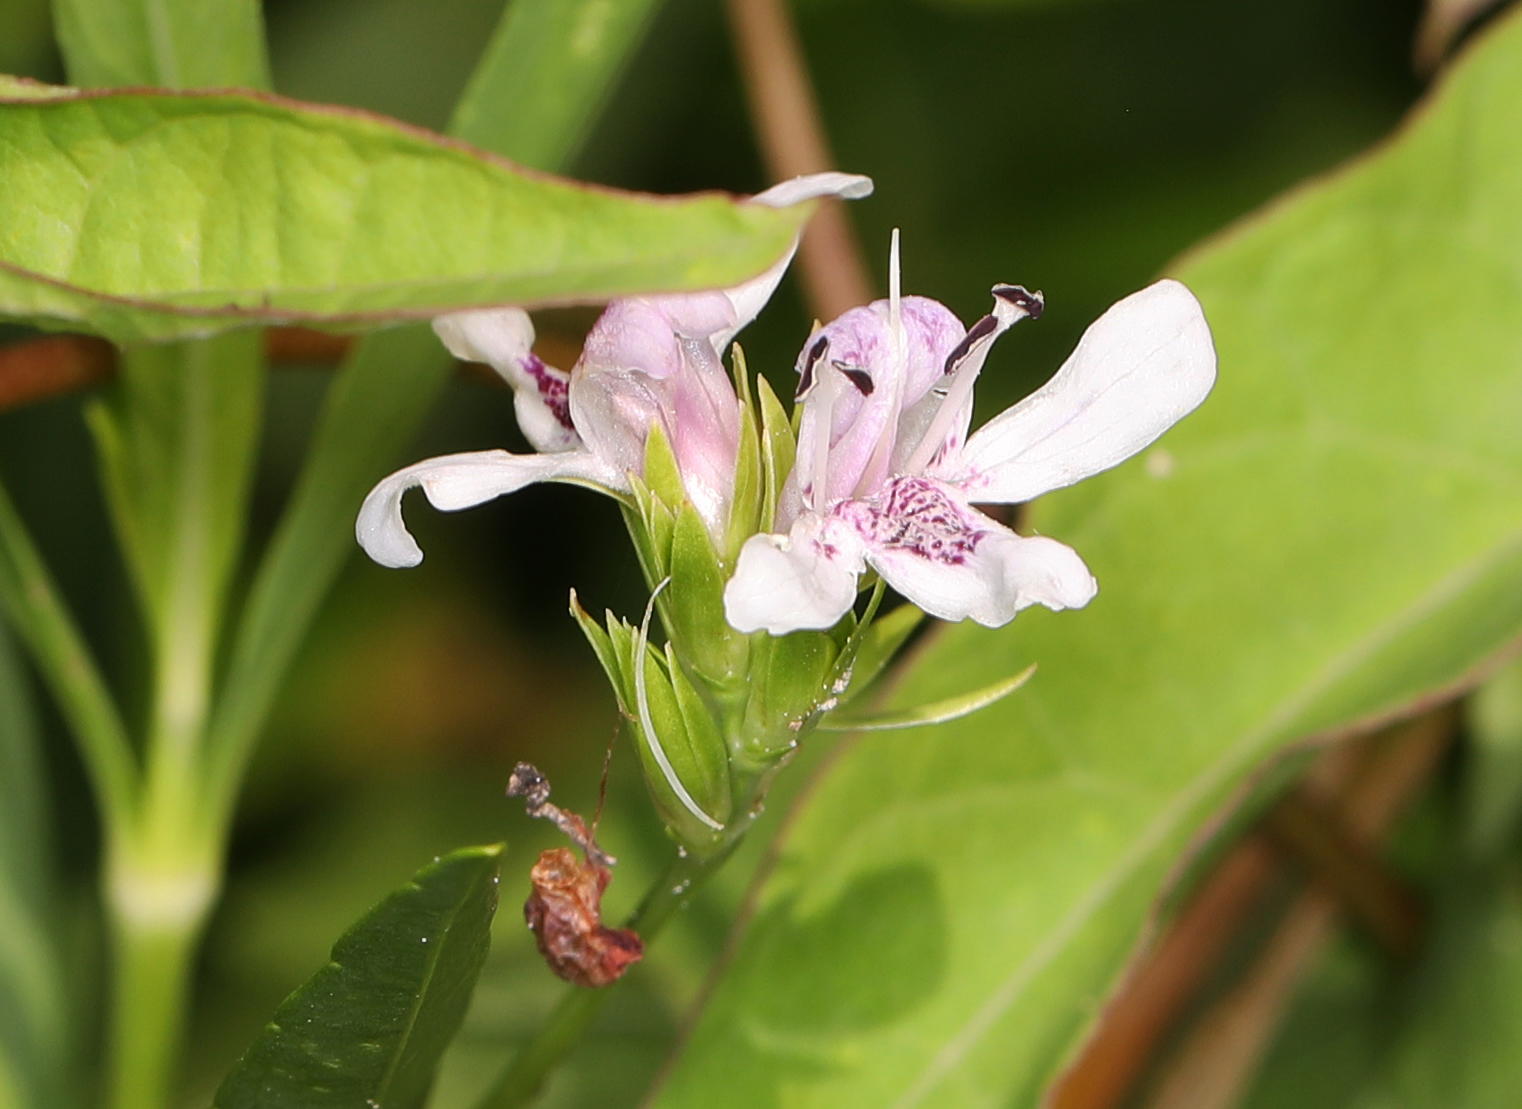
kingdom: Plantae
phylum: Tracheophyta
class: Magnoliopsida
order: Lamiales
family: Acanthaceae
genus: Dianthera
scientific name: Dianthera americana
